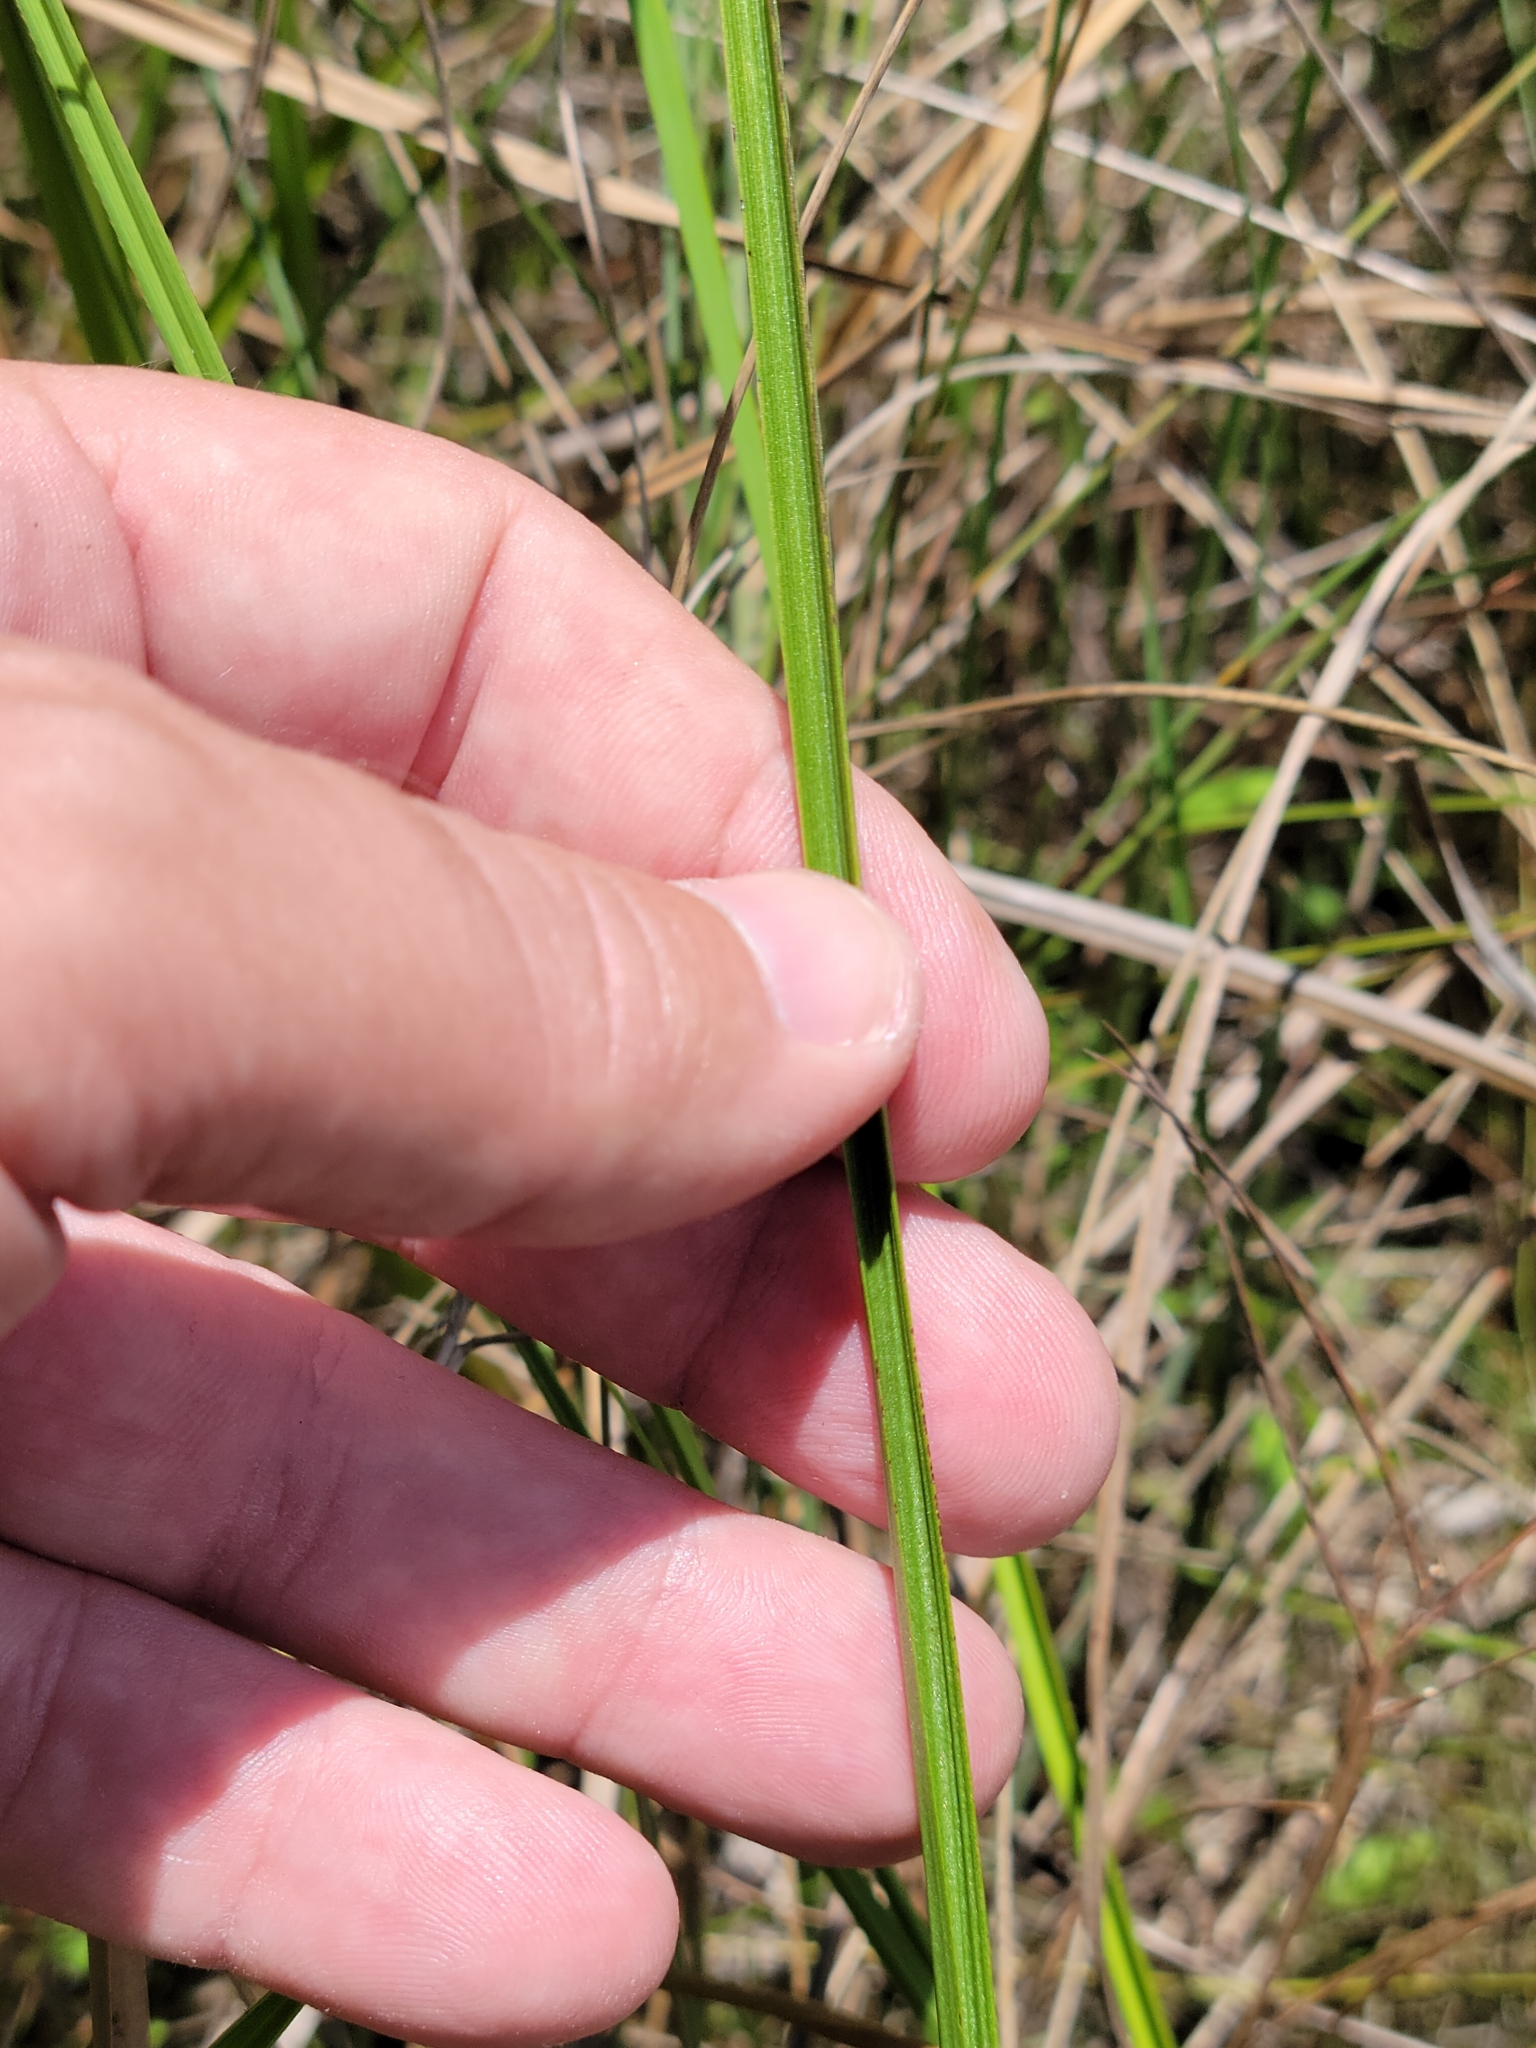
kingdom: Plantae
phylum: Tracheophyta
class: Liliopsida
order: Asparagales
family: Orchidaceae
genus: Calopogon
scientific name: Calopogon tuberosus
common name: Grass-pink
